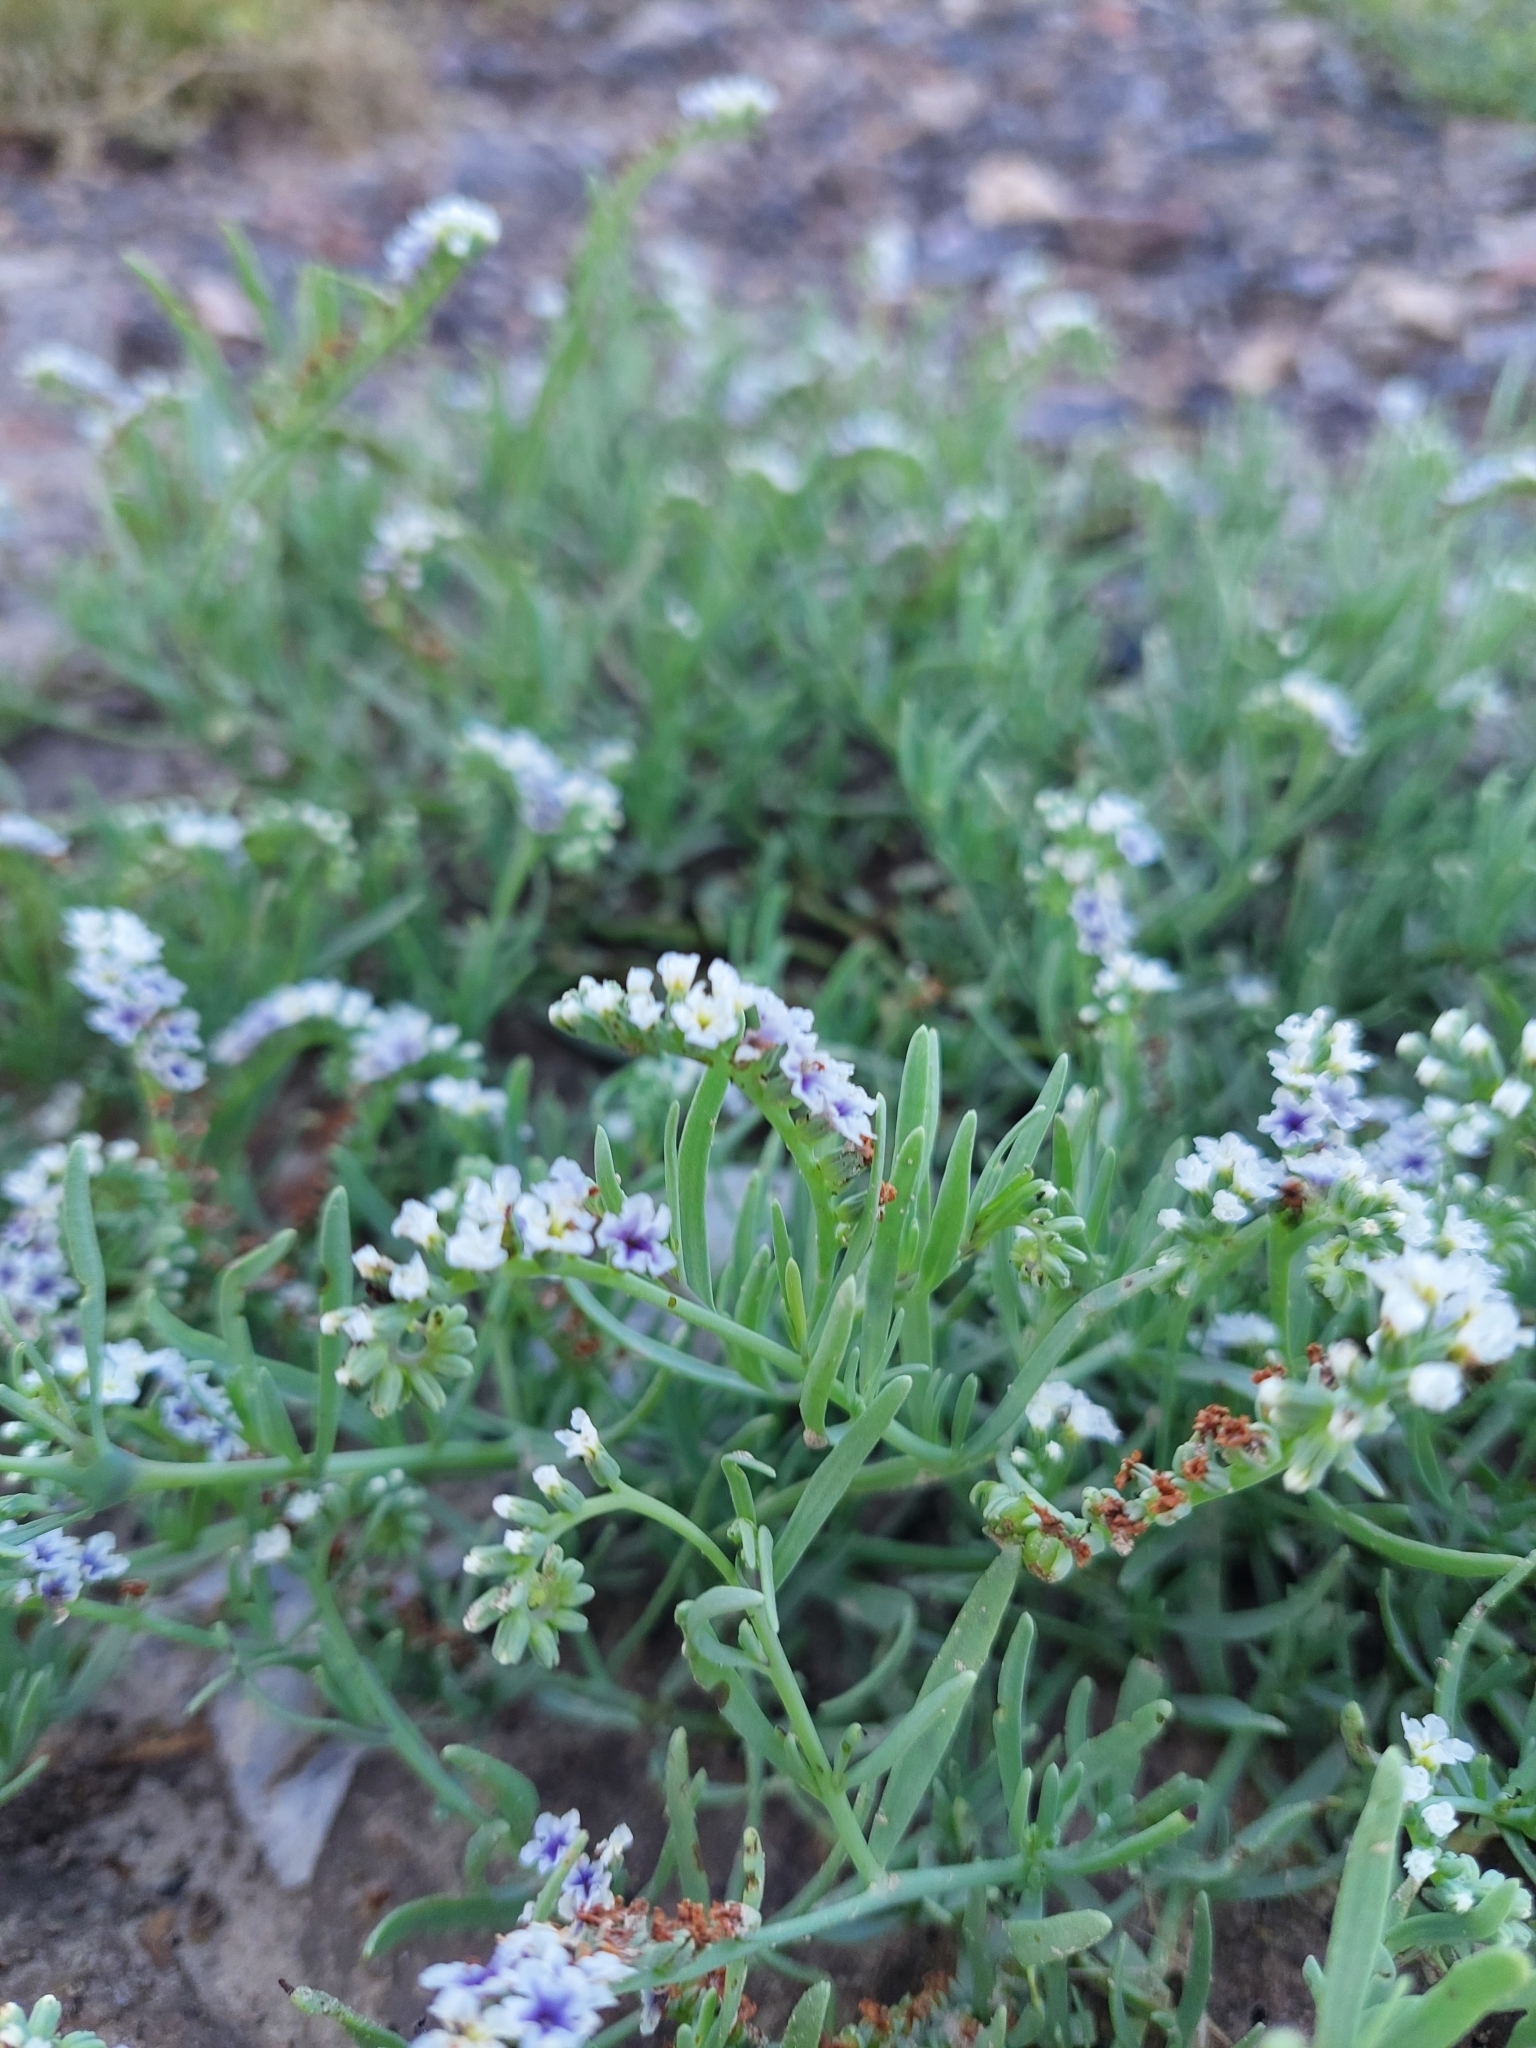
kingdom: Plantae
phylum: Tracheophyta
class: Magnoliopsida
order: Boraginales
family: Heliotropiaceae
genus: Heliotropium
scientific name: Heliotropium curassavicum
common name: Seaside heliotrope
